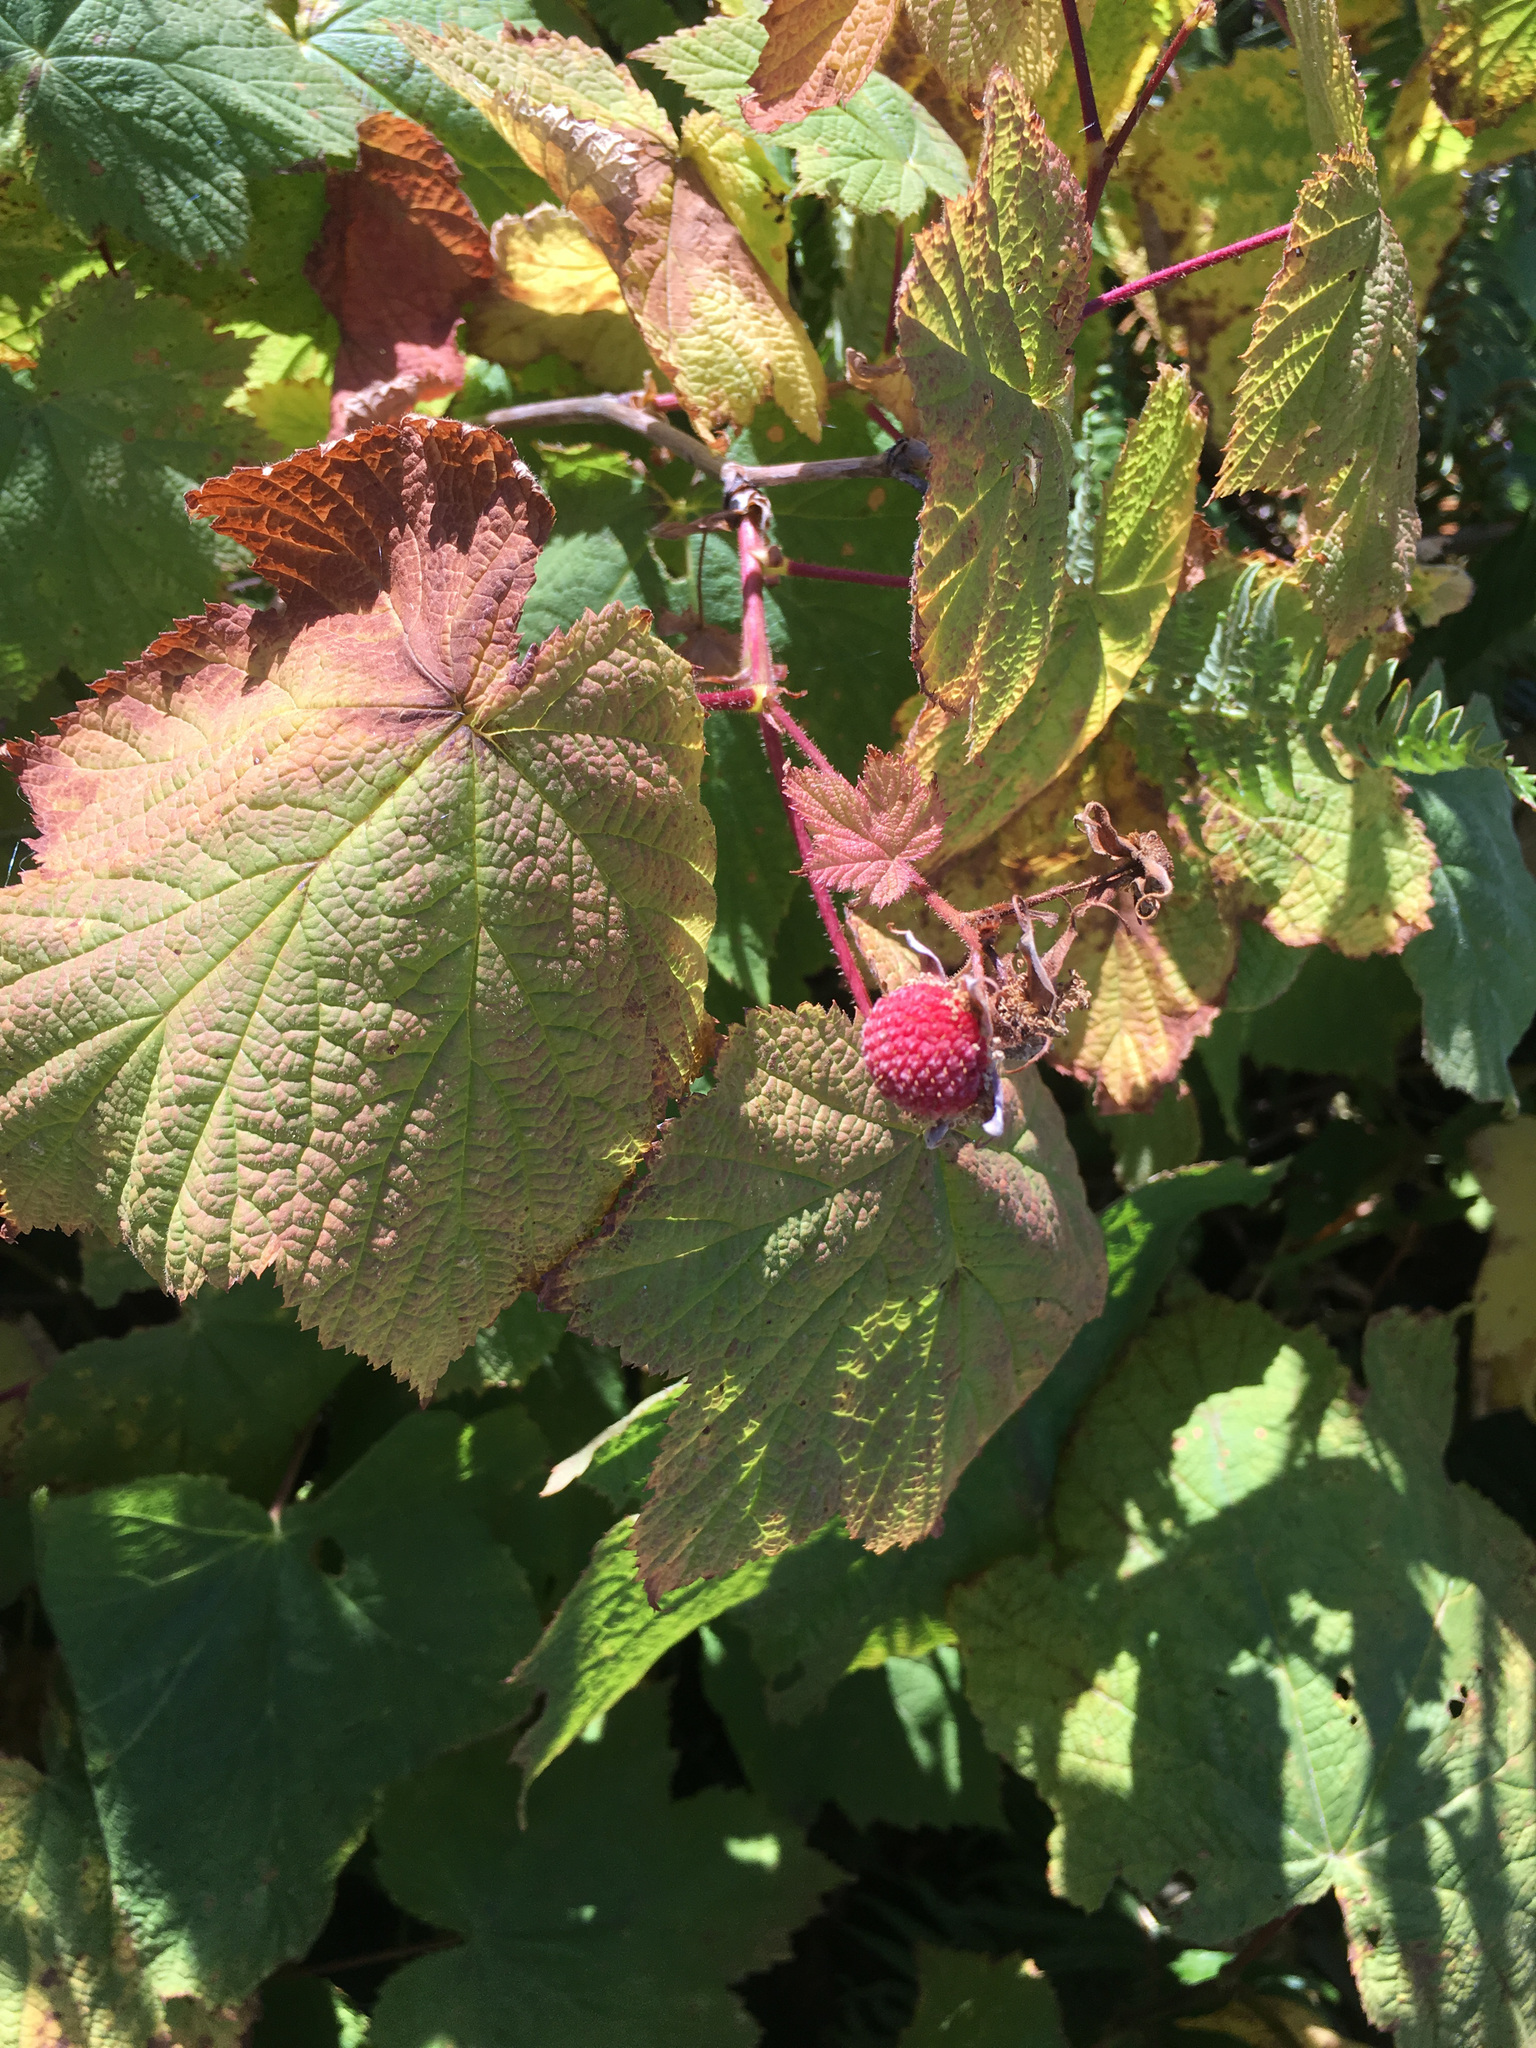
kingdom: Plantae
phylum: Tracheophyta
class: Magnoliopsida
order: Rosales
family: Rosaceae
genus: Rubus
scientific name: Rubus parviflorus
